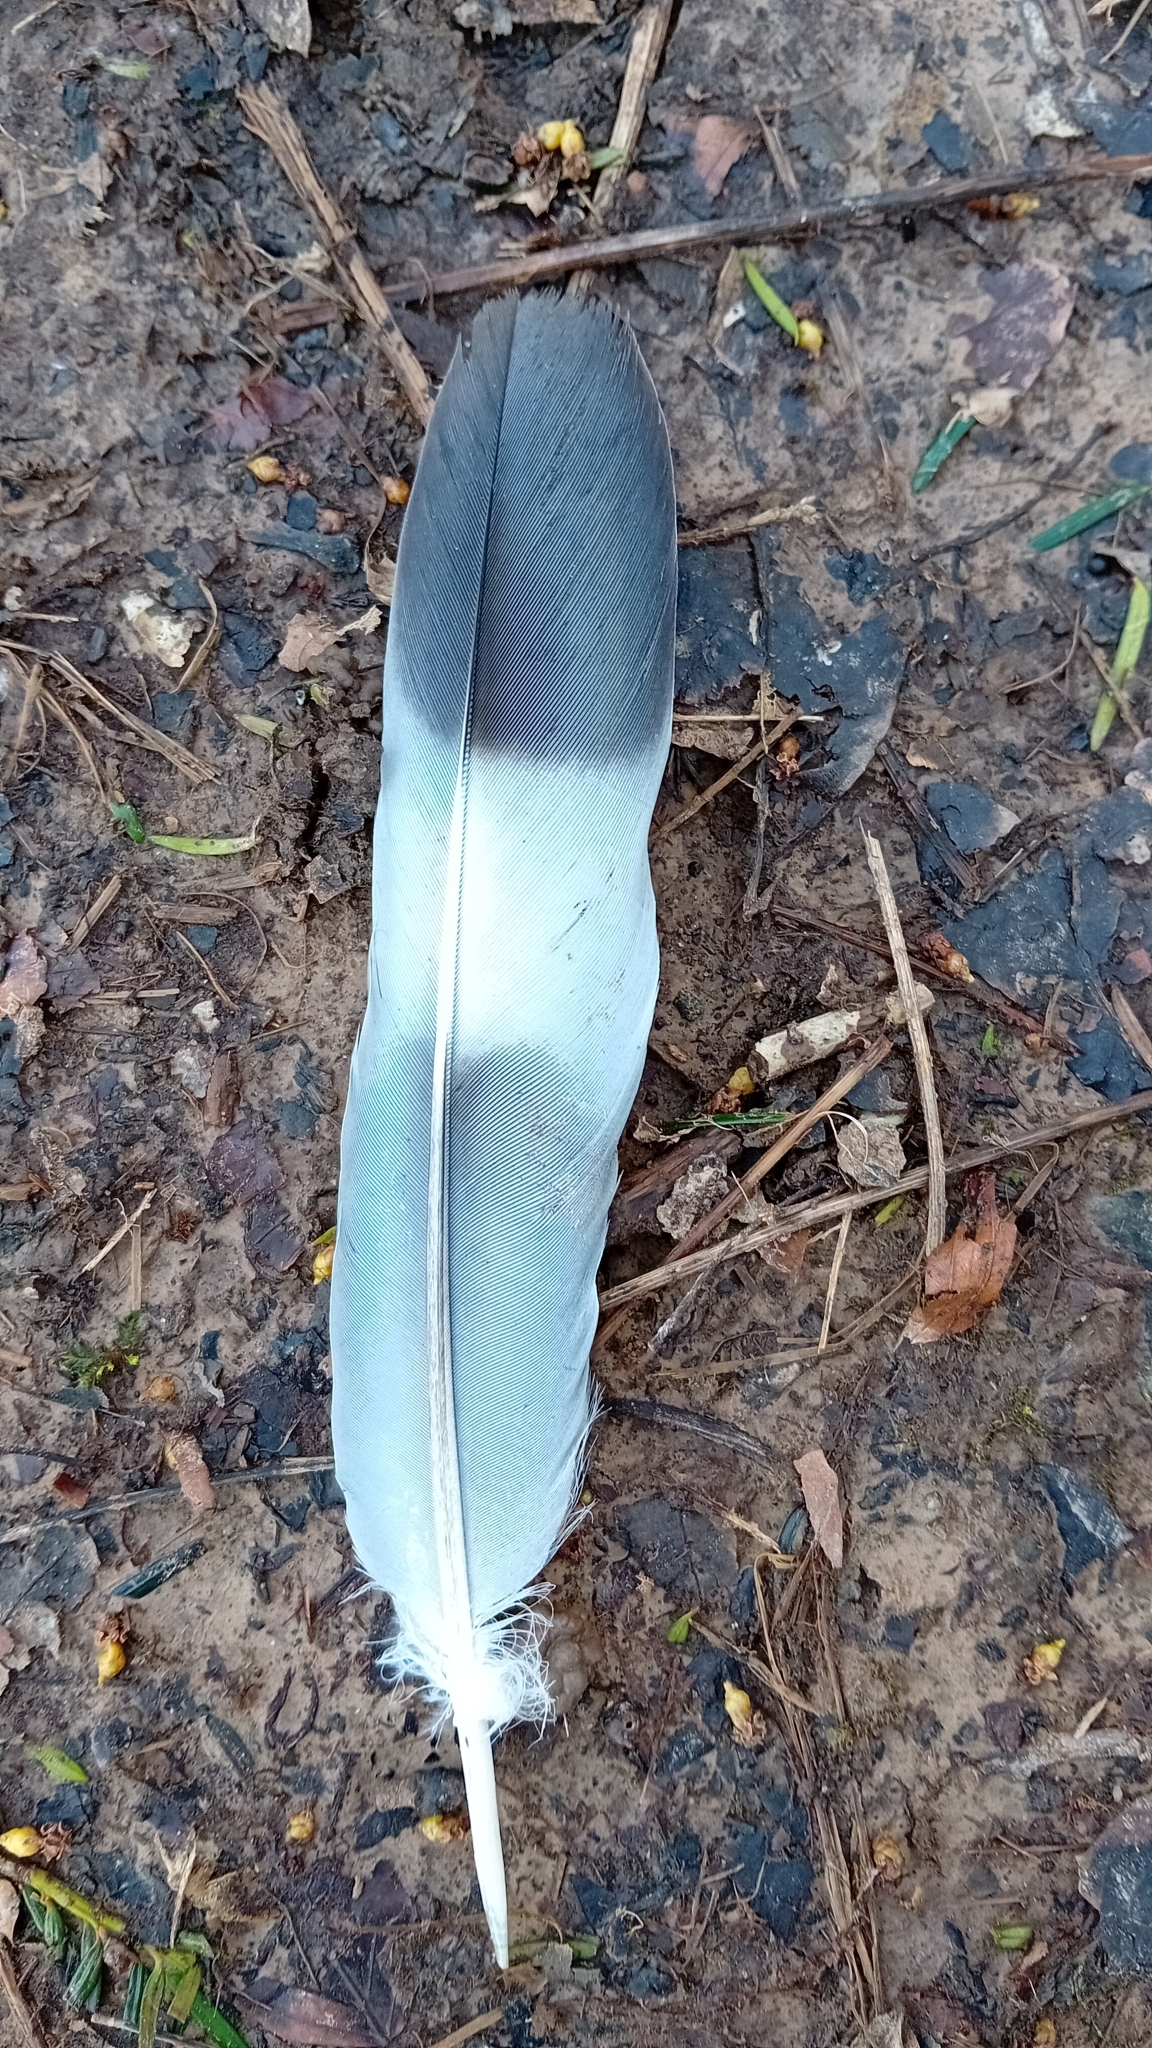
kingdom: Animalia
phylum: Chordata
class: Aves
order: Columbiformes
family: Columbidae
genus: Columba
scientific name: Columba palumbus
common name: Common wood pigeon
